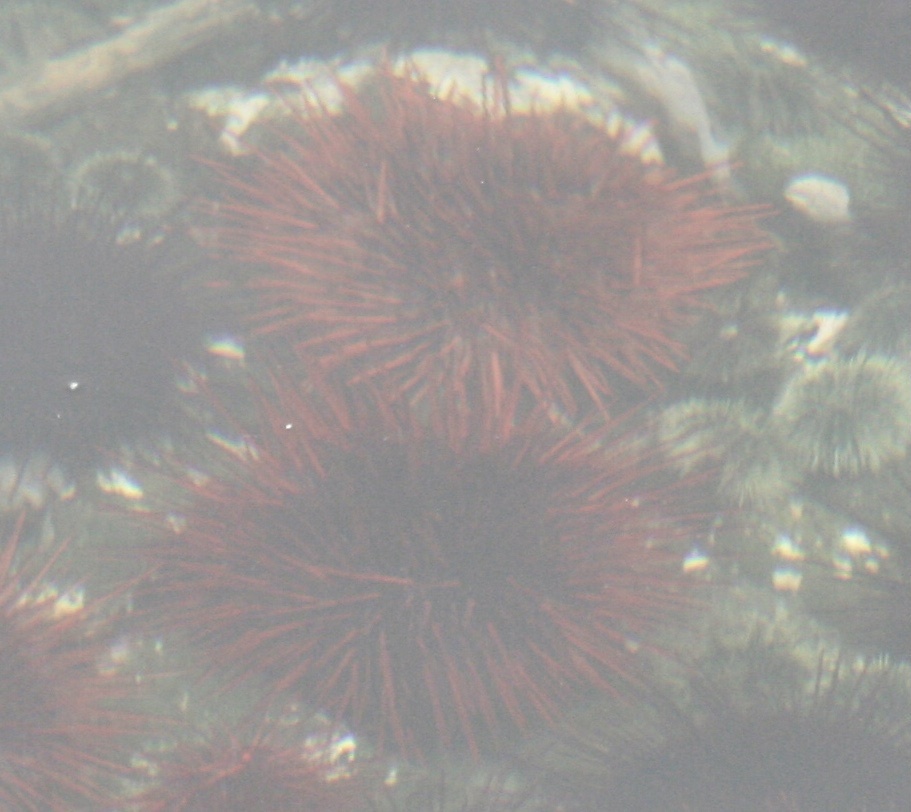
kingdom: Animalia
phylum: Echinodermata
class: Echinoidea
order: Camarodonta
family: Strongylocentrotidae
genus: Mesocentrotus
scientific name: Mesocentrotus franciscanus
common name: Red sea urchin
